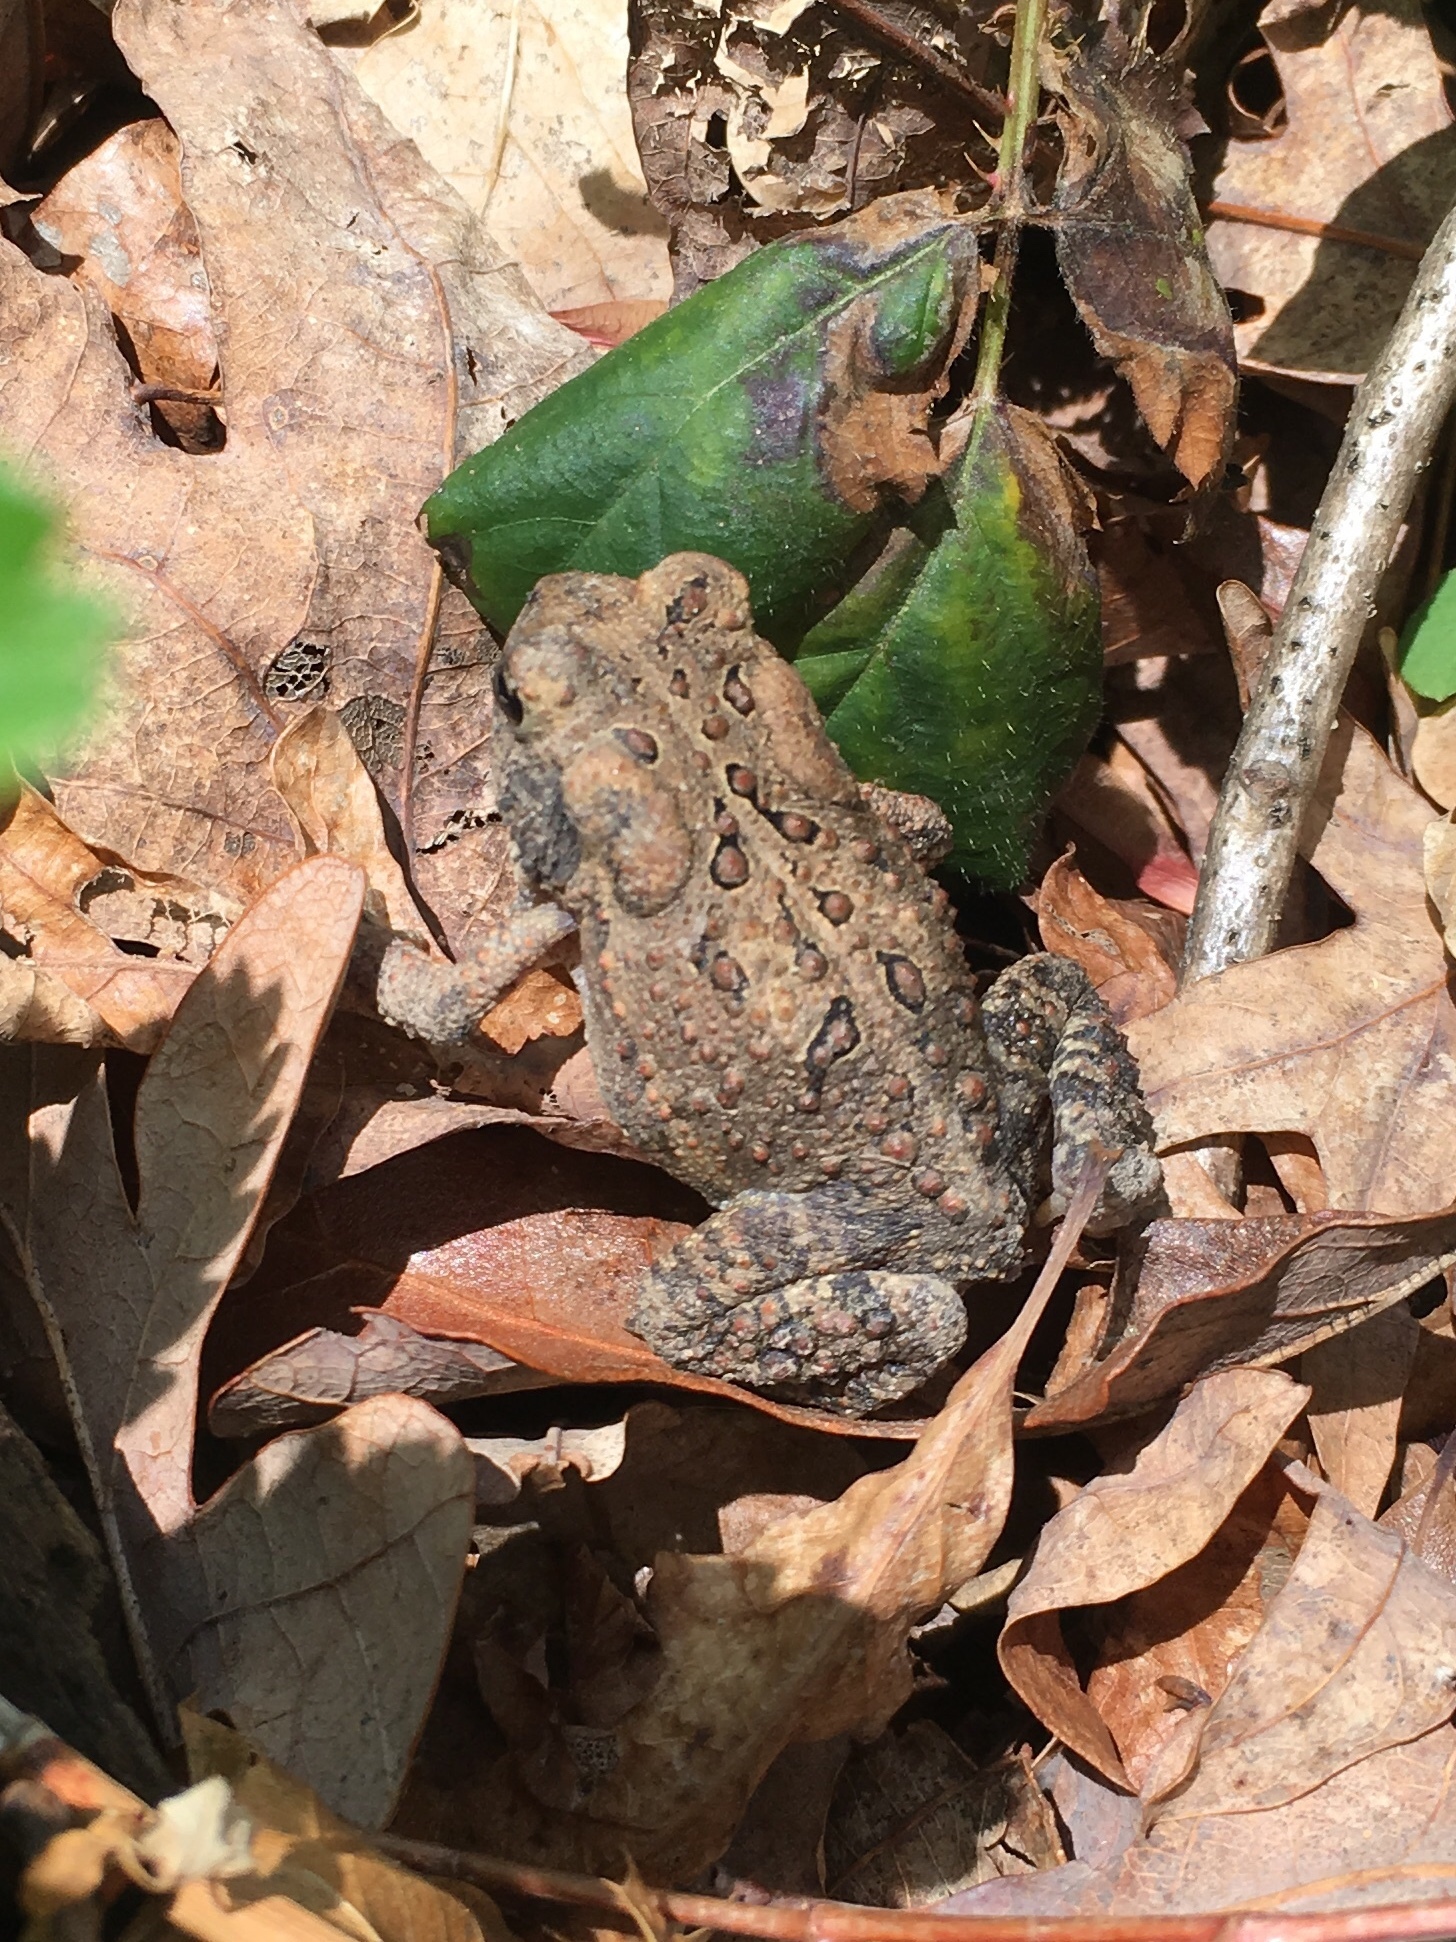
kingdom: Animalia
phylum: Chordata
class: Amphibia
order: Anura
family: Bufonidae
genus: Anaxyrus
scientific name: Anaxyrus americanus
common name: American toad
